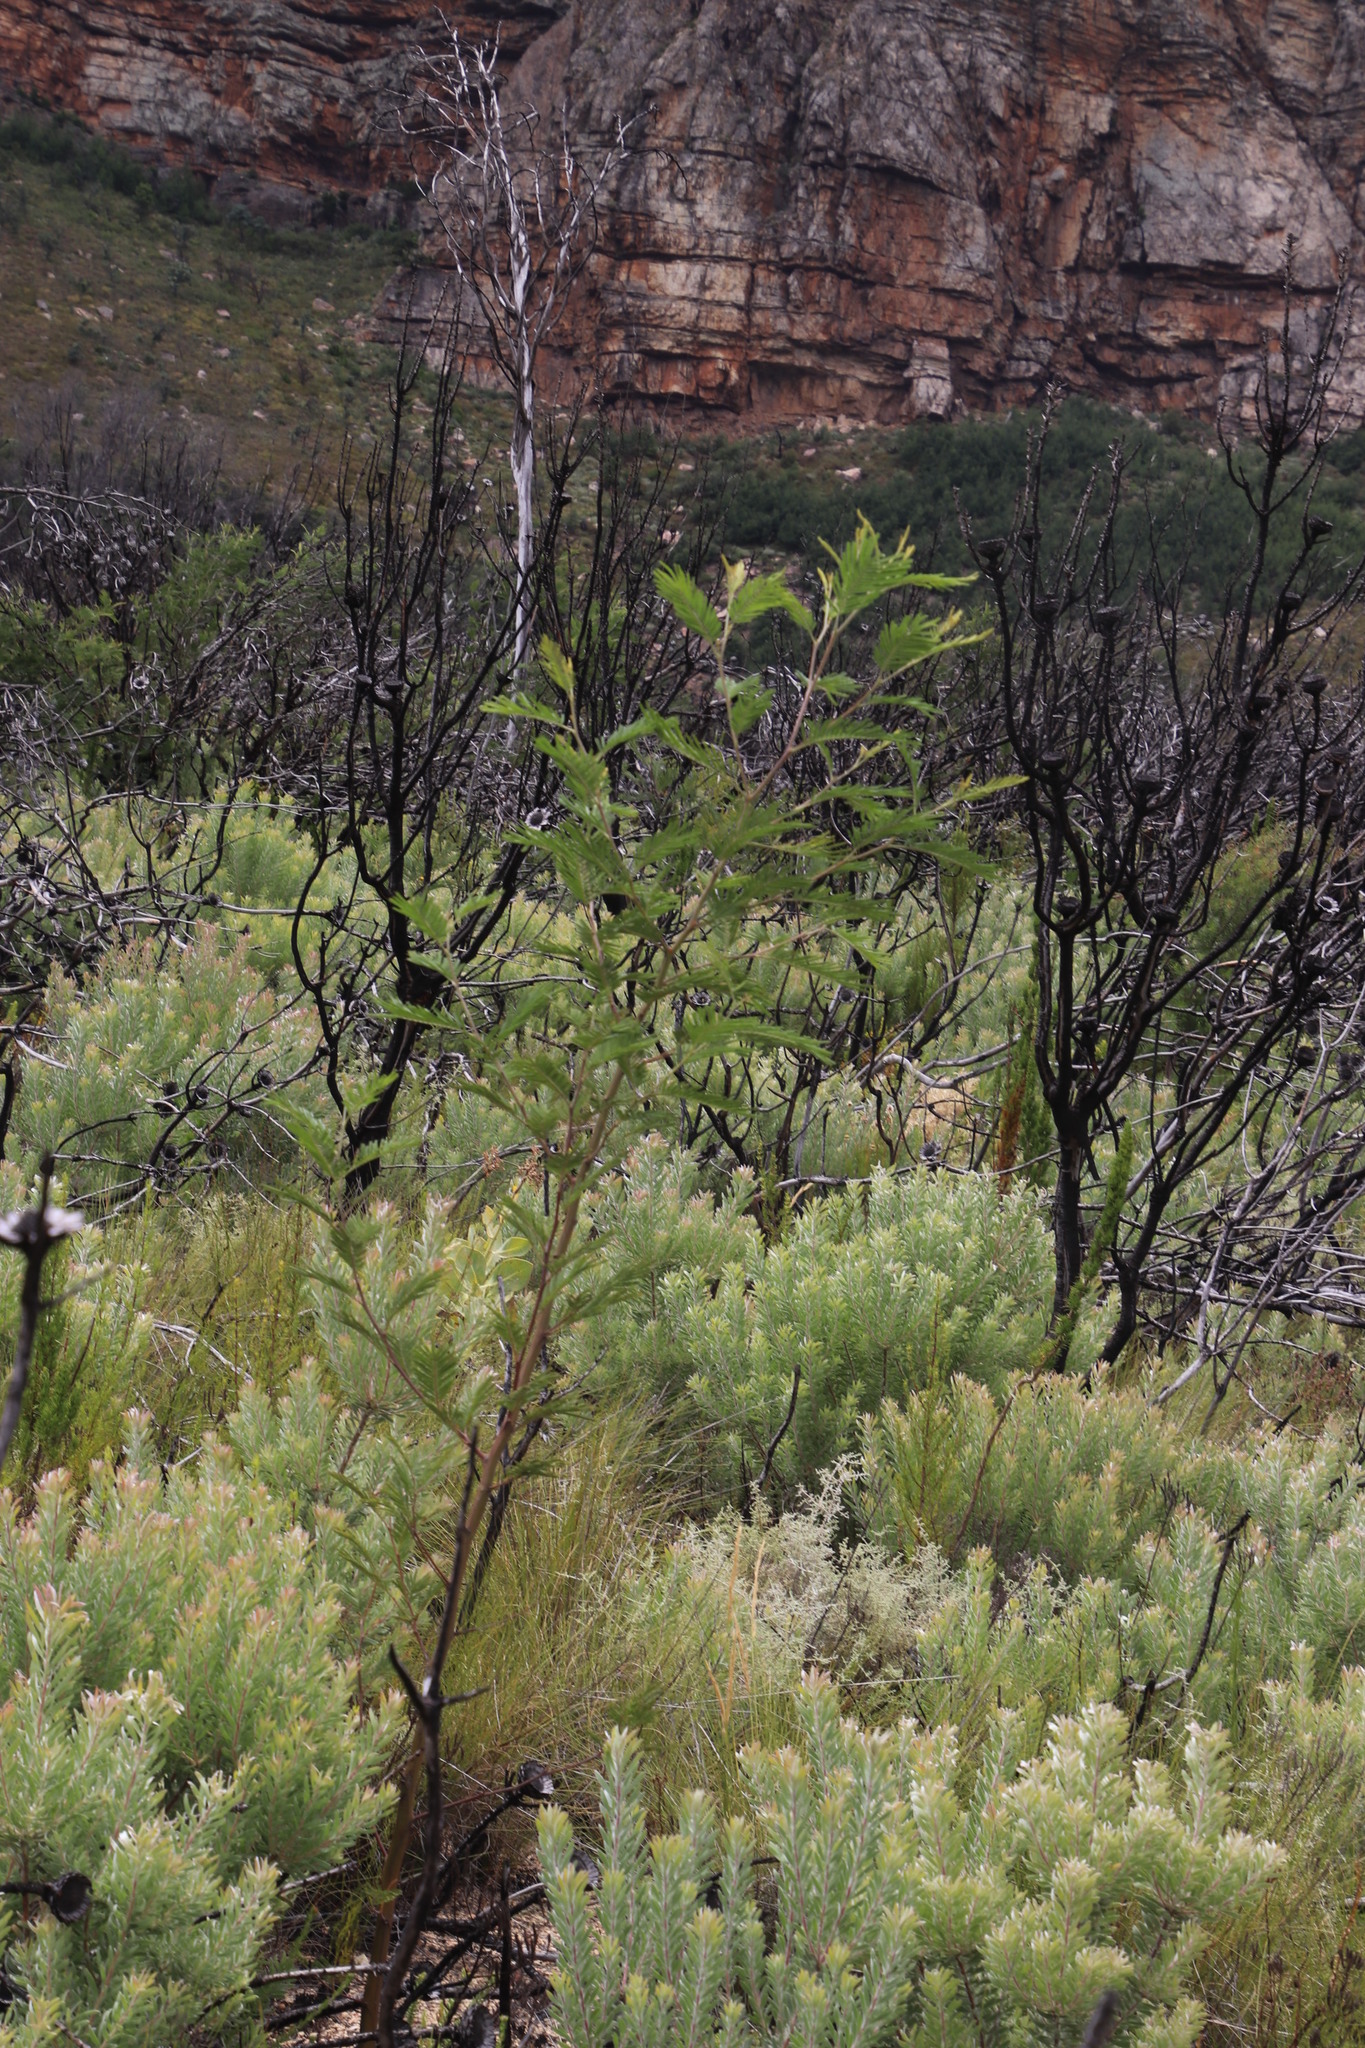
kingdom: Plantae
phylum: Tracheophyta
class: Magnoliopsida
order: Fabales
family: Fabaceae
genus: Acacia
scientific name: Acacia mearnsii
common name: Black wattle
